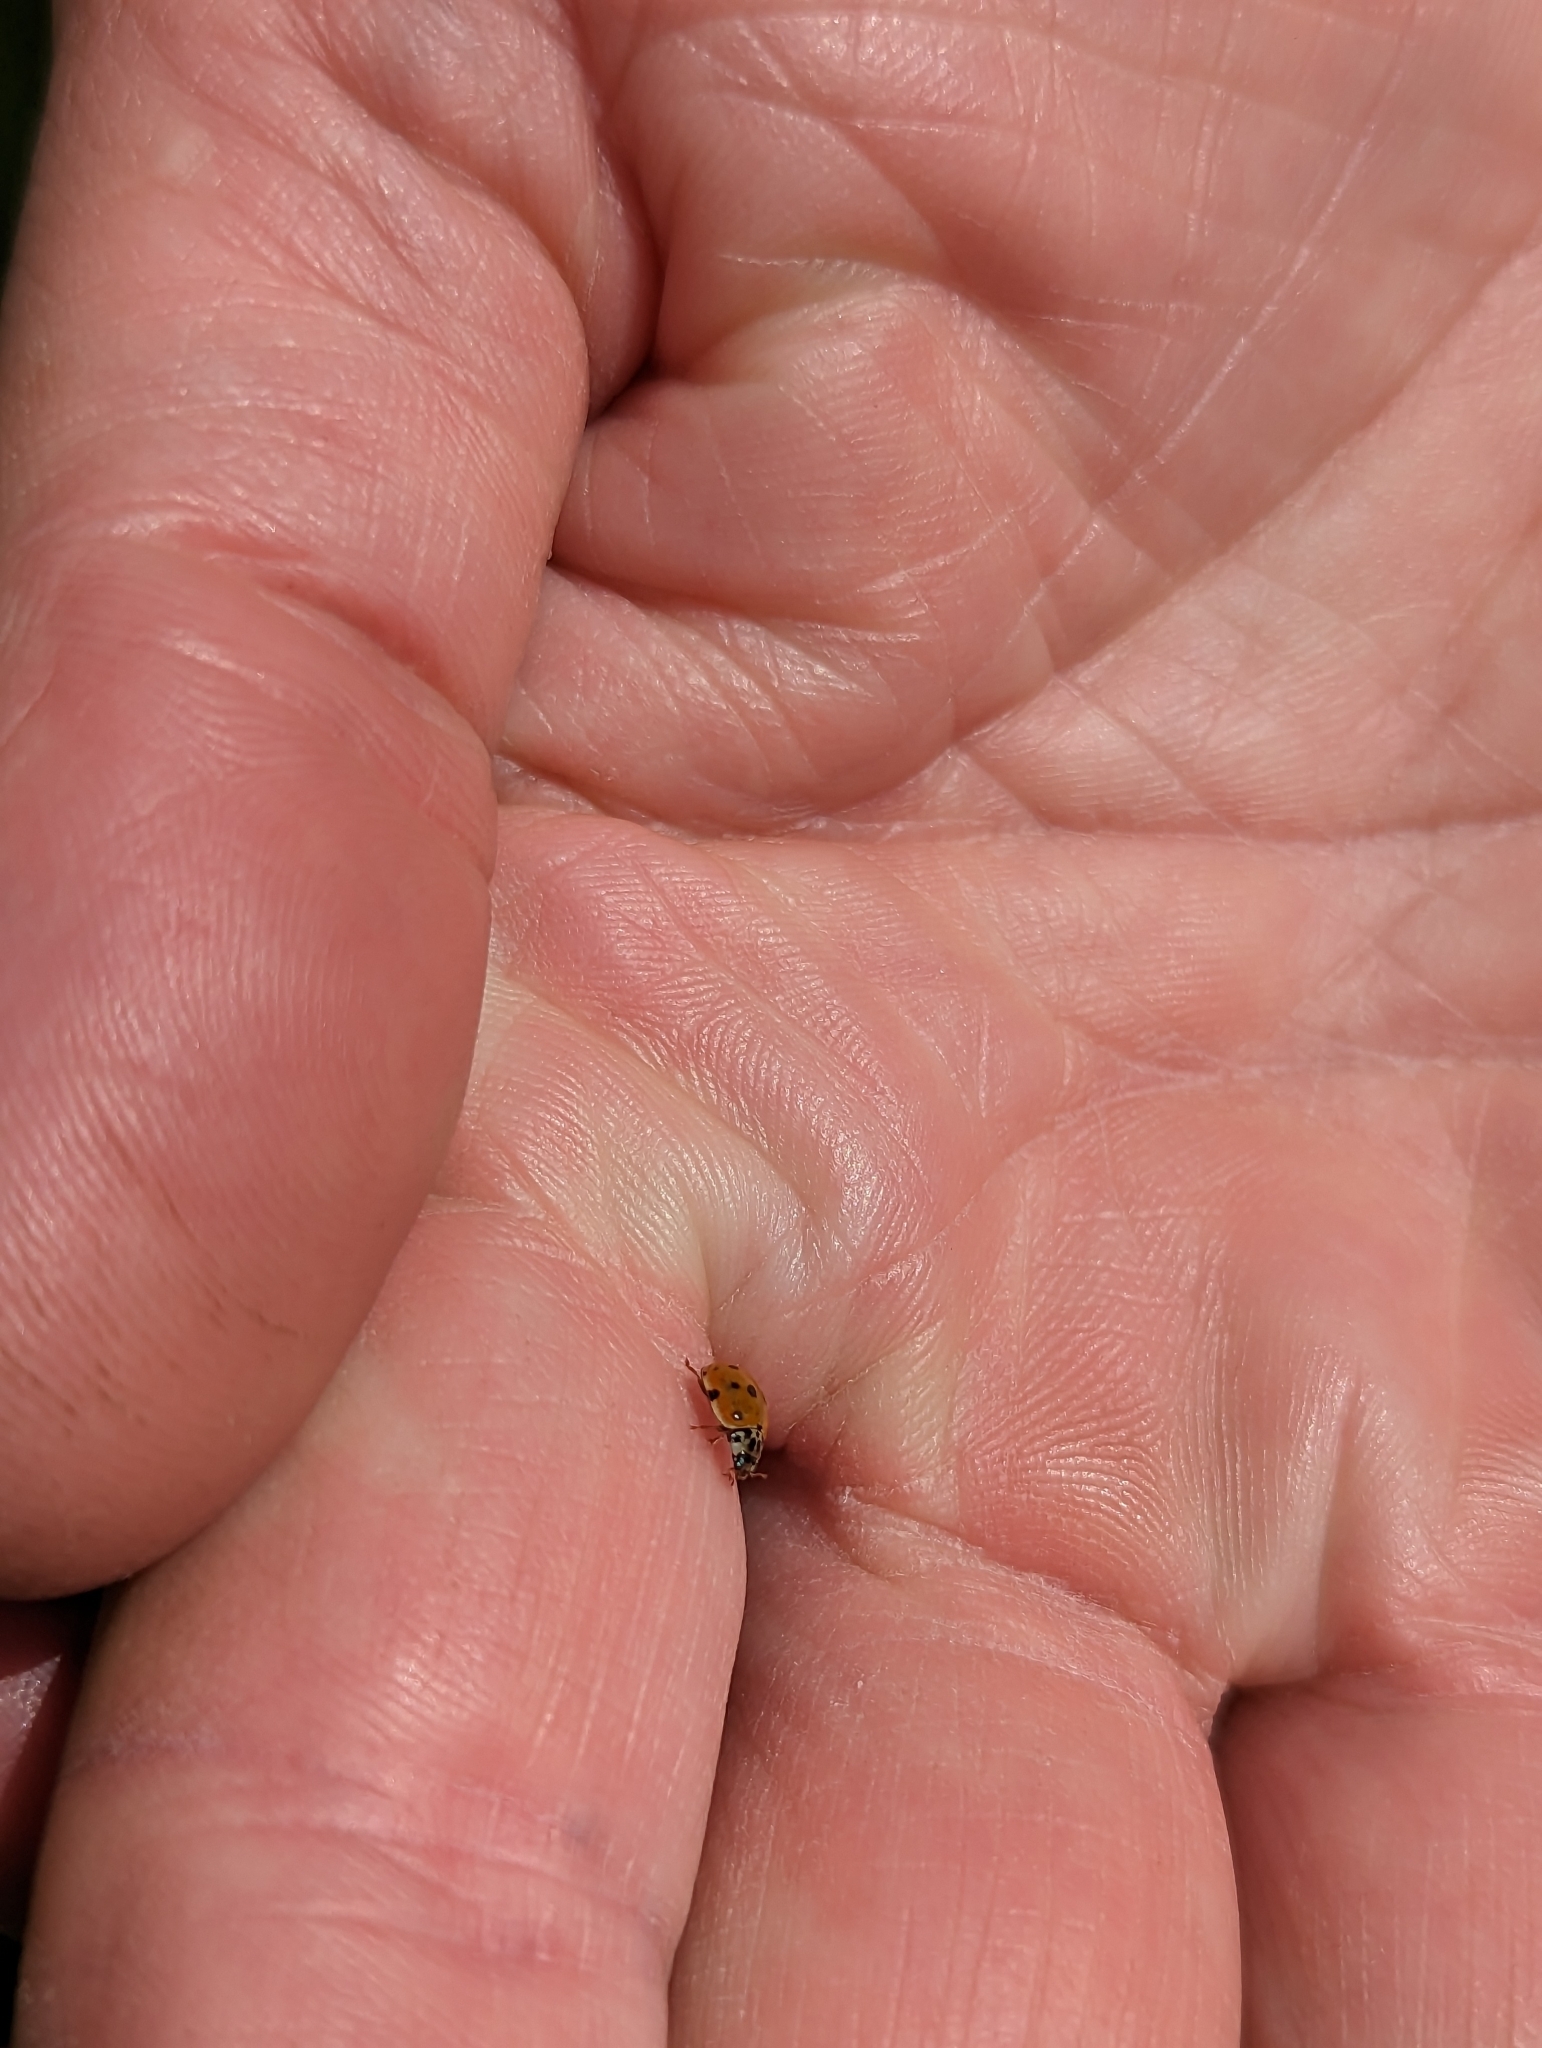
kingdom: Animalia
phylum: Arthropoda
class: Insecta
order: Coleoptera
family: Coccinellidae
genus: Adalia
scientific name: Adalia decempunctata
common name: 10-spot ladybird
